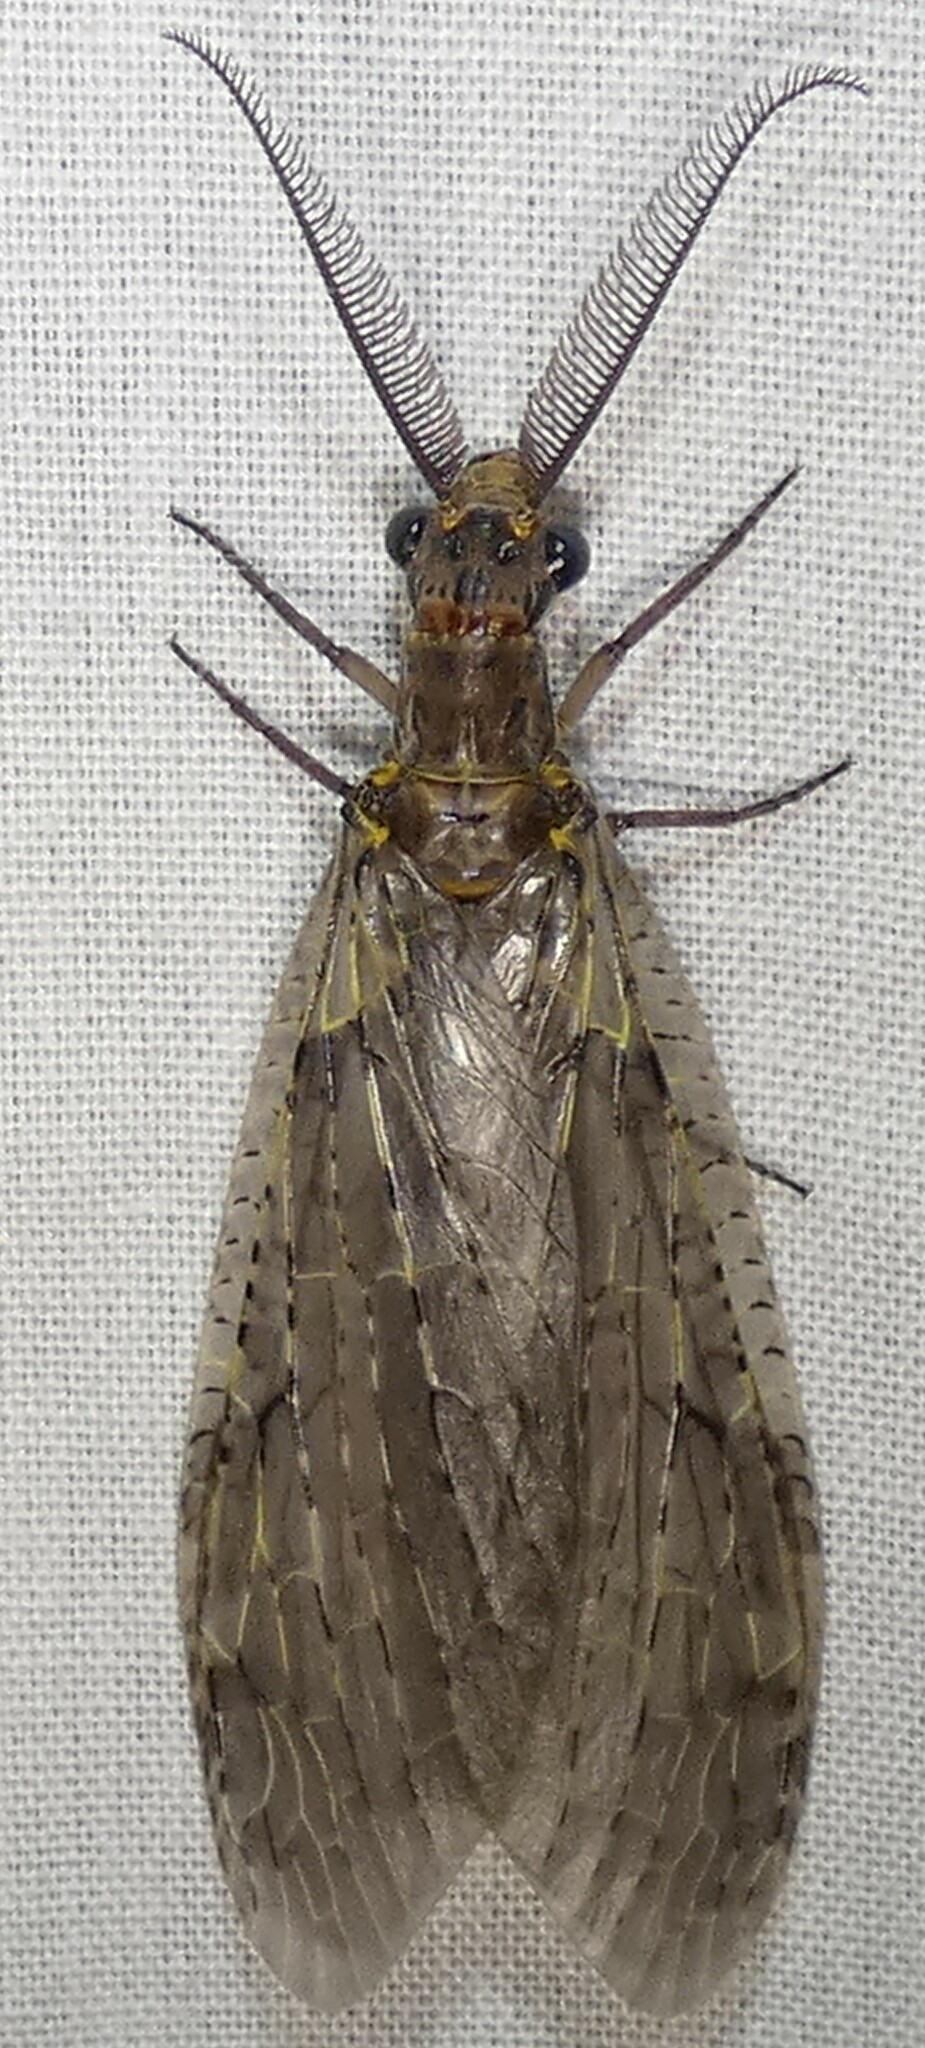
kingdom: Animalia
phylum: Arthropoda
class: Insecta
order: Megaloptera
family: Corydalidae
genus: Chauliodes
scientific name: Chauliodes rastricornis
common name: Spring fishfly
